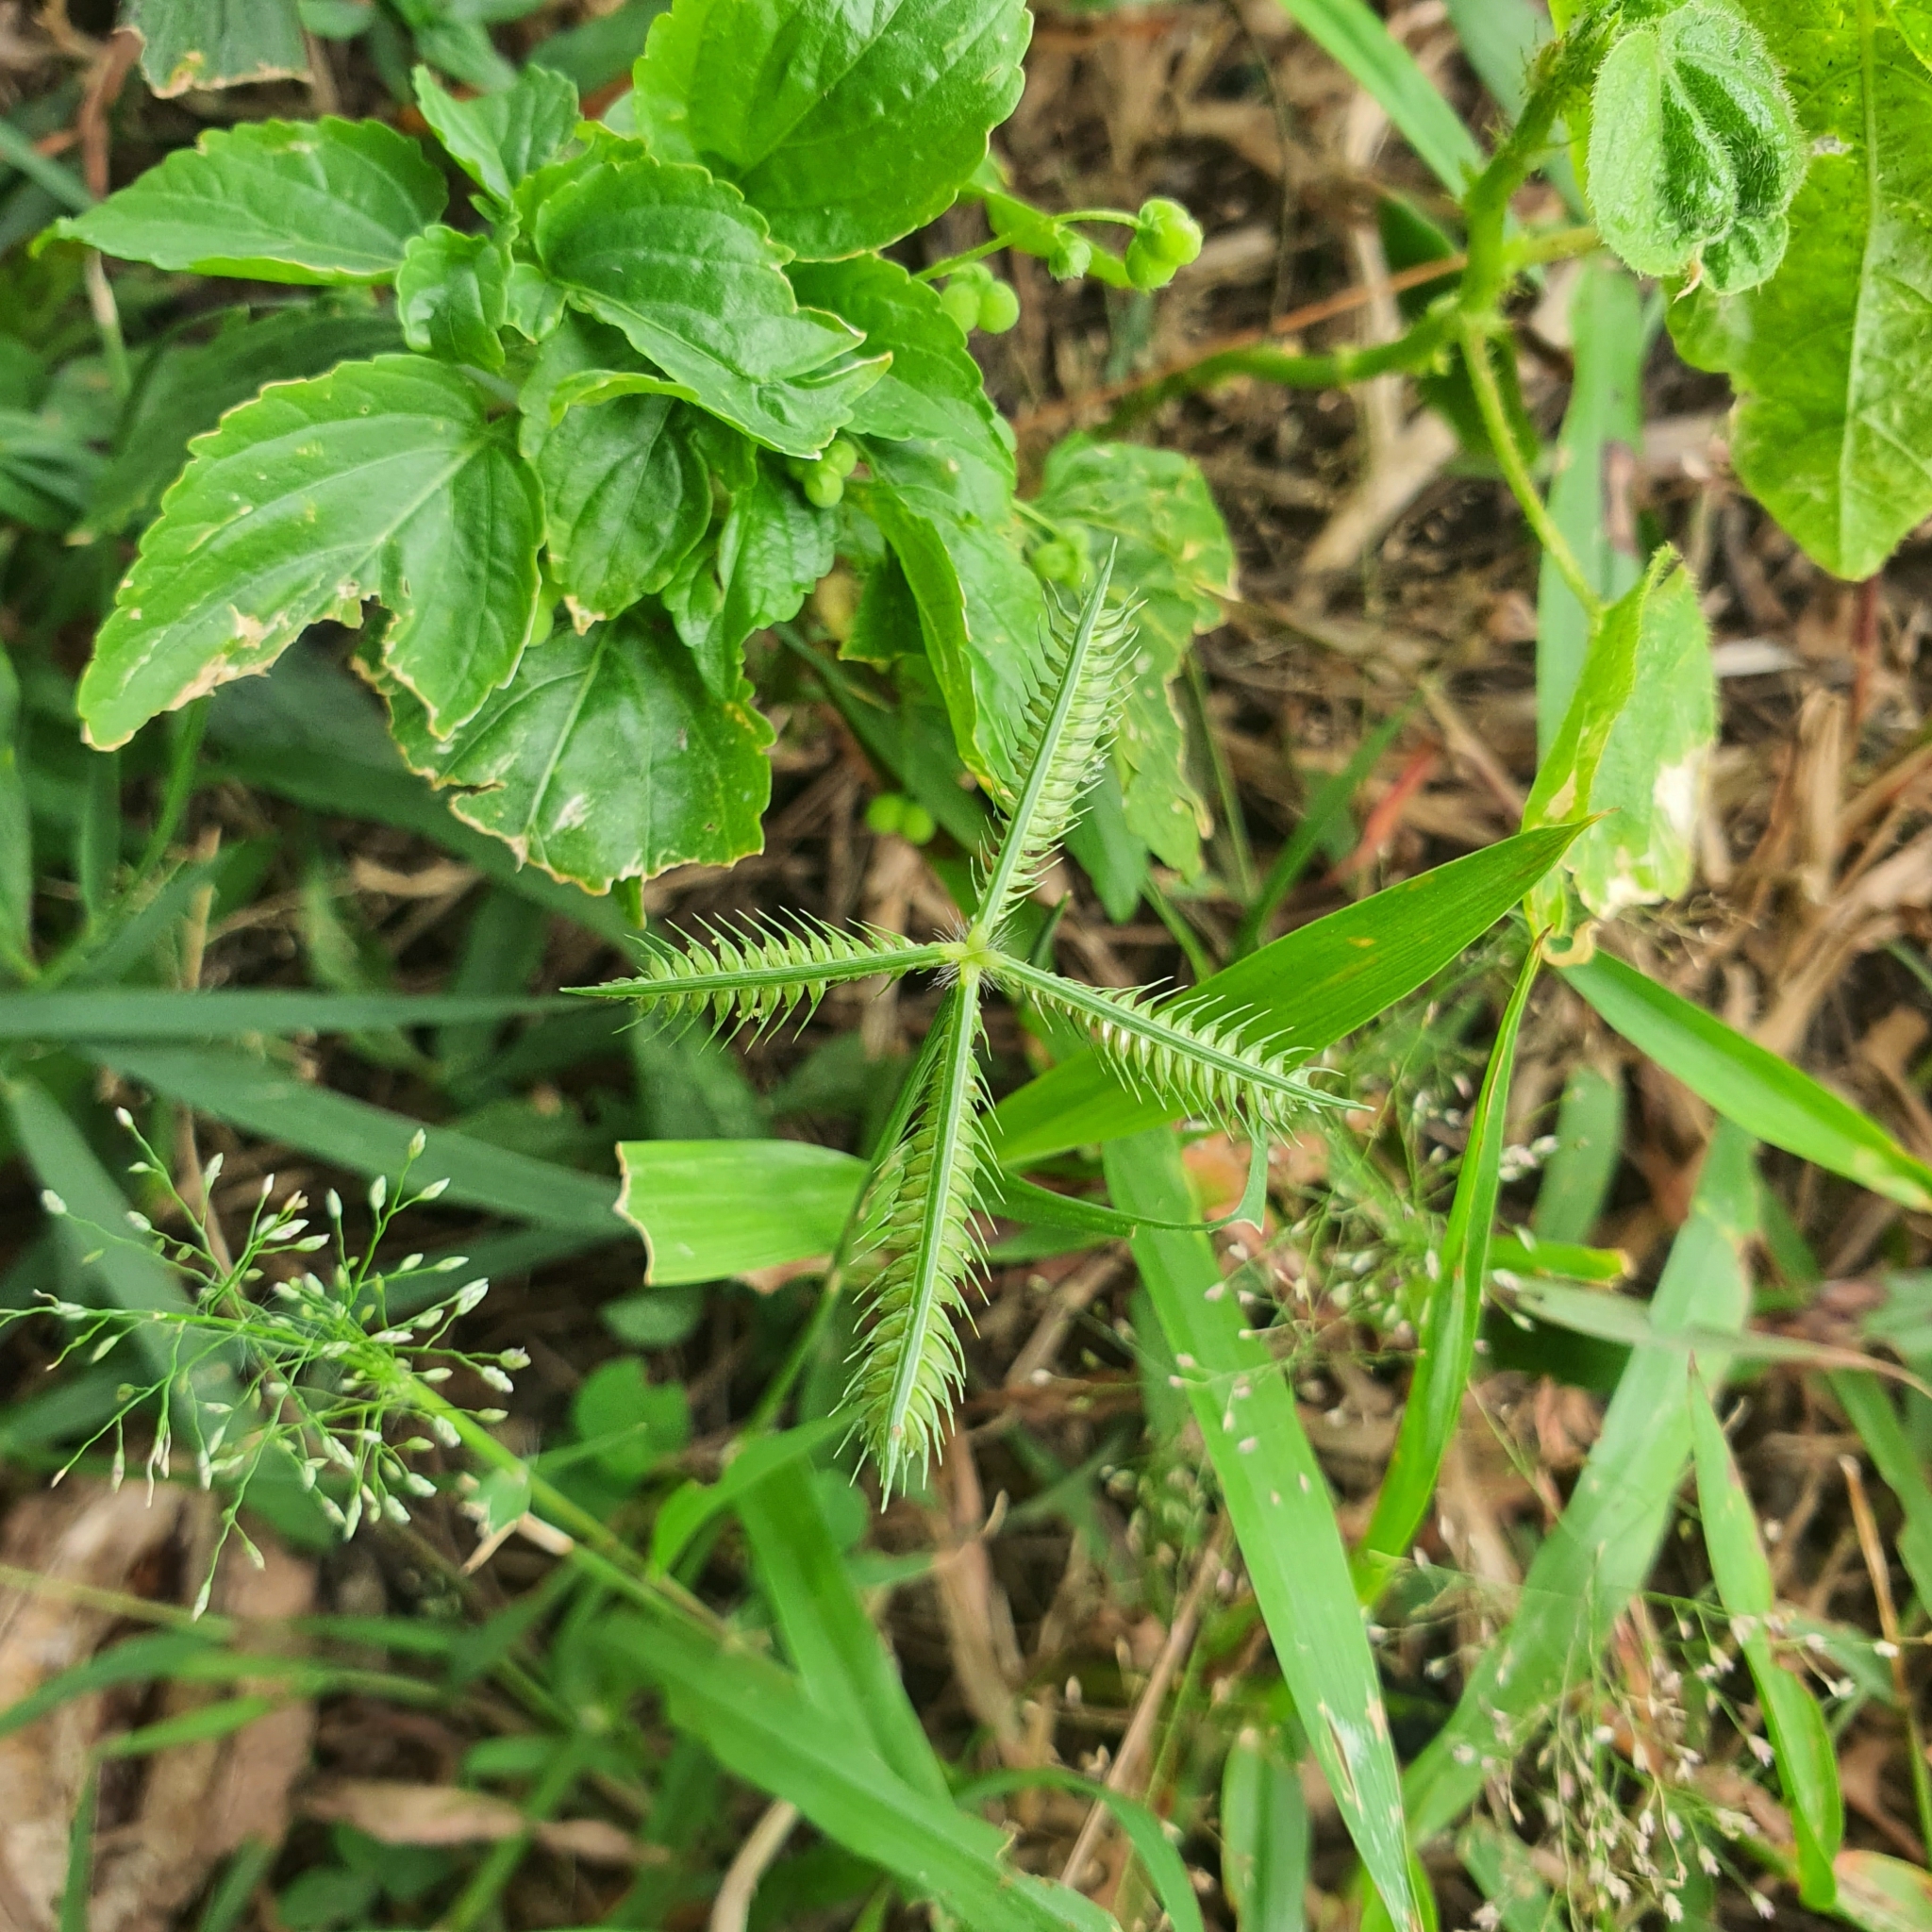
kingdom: Plantae
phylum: Tracheophyta
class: Liliopsida
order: Poales
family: Poaceae
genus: Dactyloctenium
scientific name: Dactyloctenium aegyptium
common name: Egyptian grass
